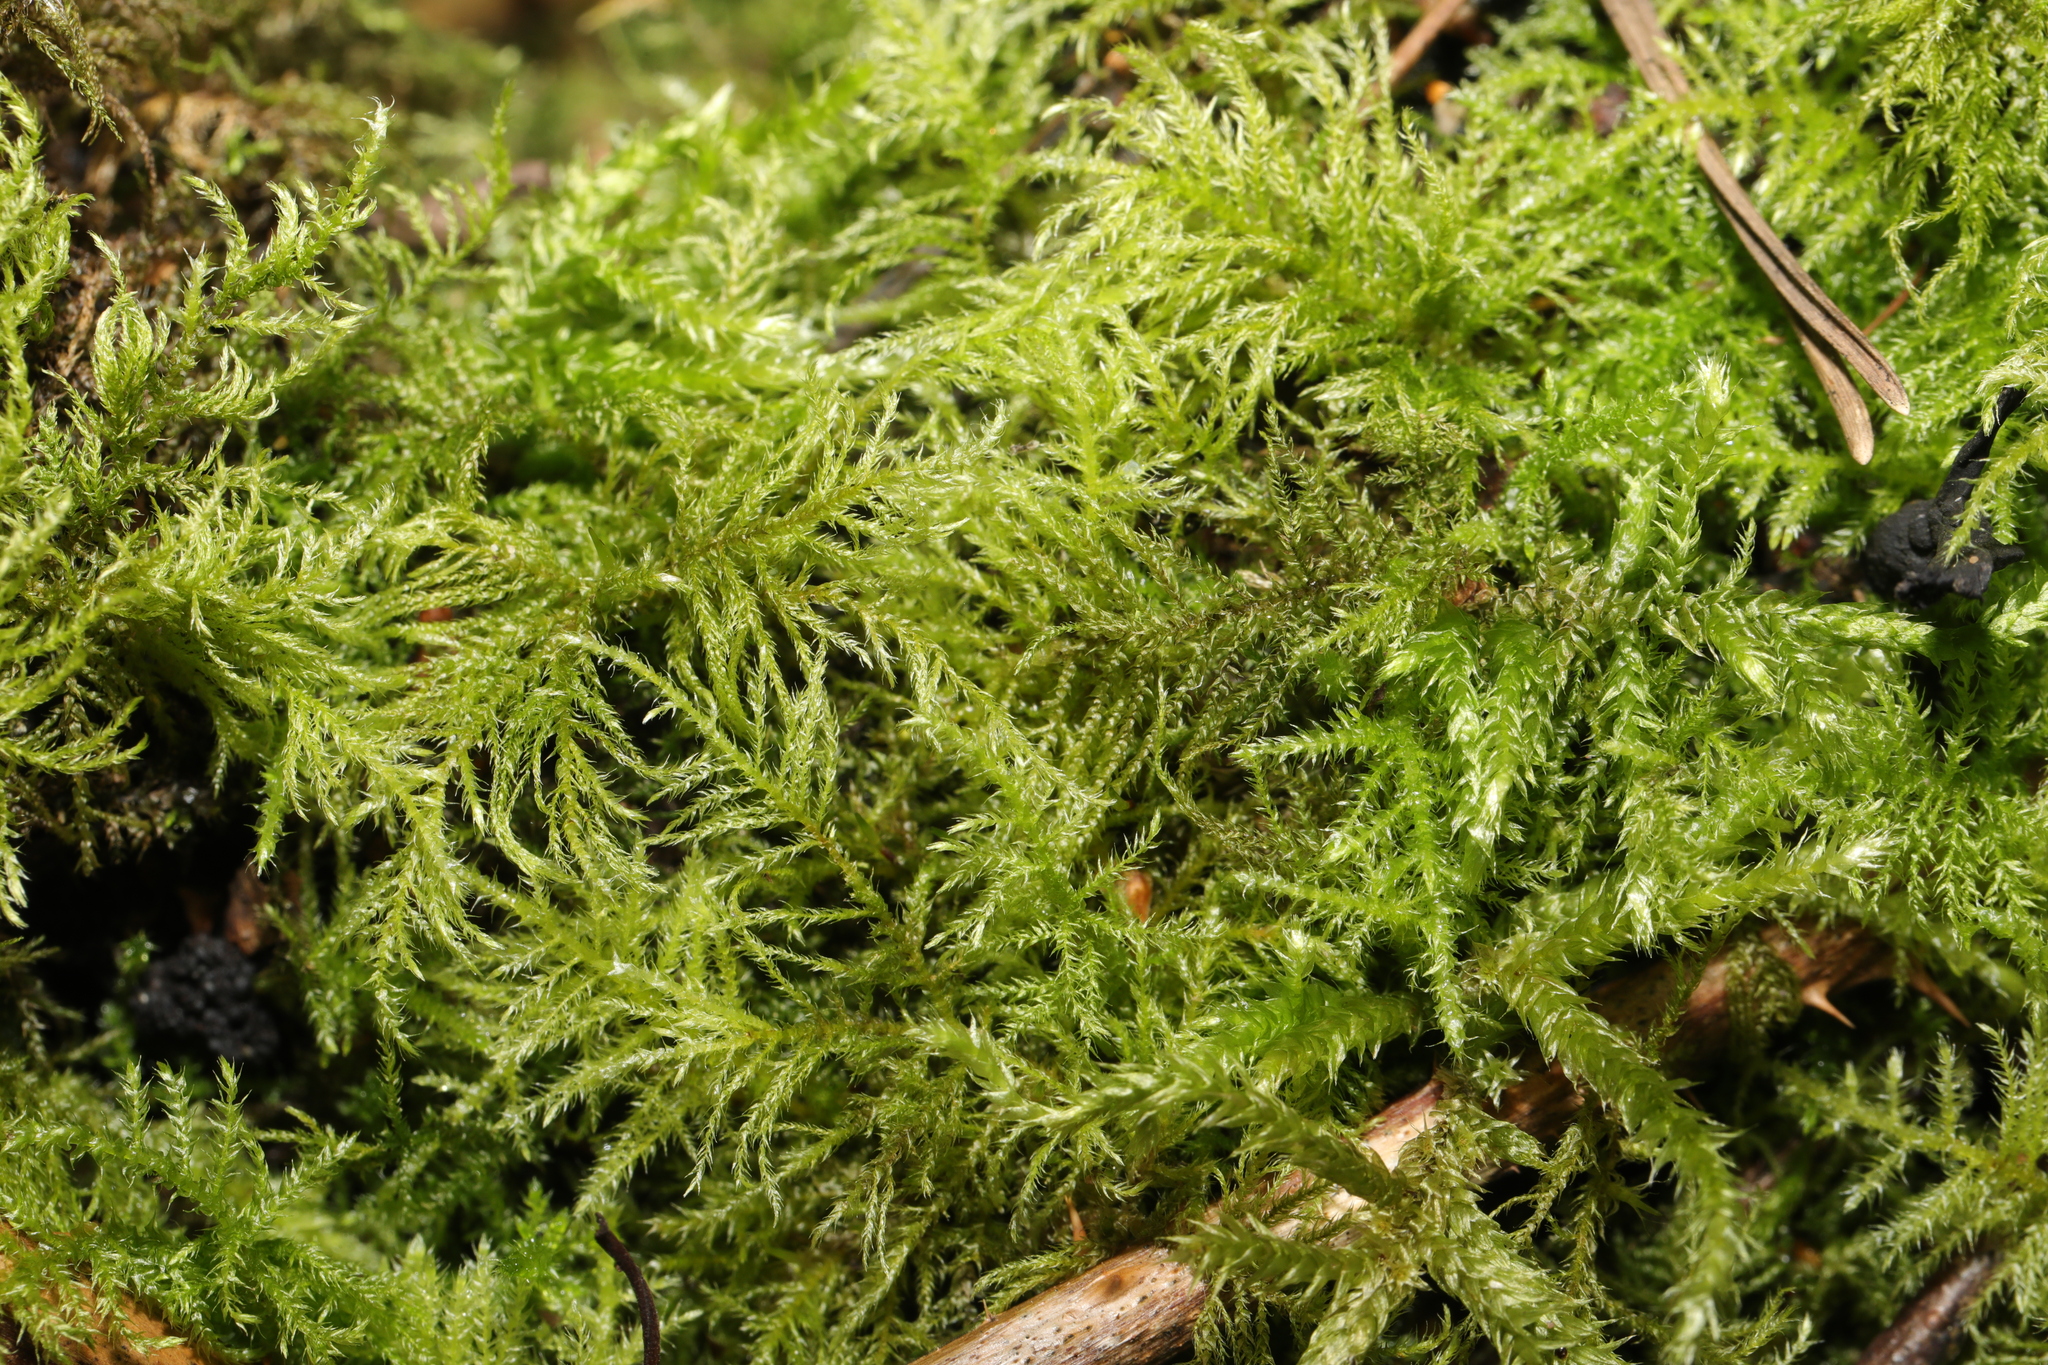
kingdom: Plantae
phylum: Bryophyta
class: Bryopsida
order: Hypnales
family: Brachytheciaceae
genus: Kindbergia
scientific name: Kindbergia praelonga
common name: Slender beaked moss
